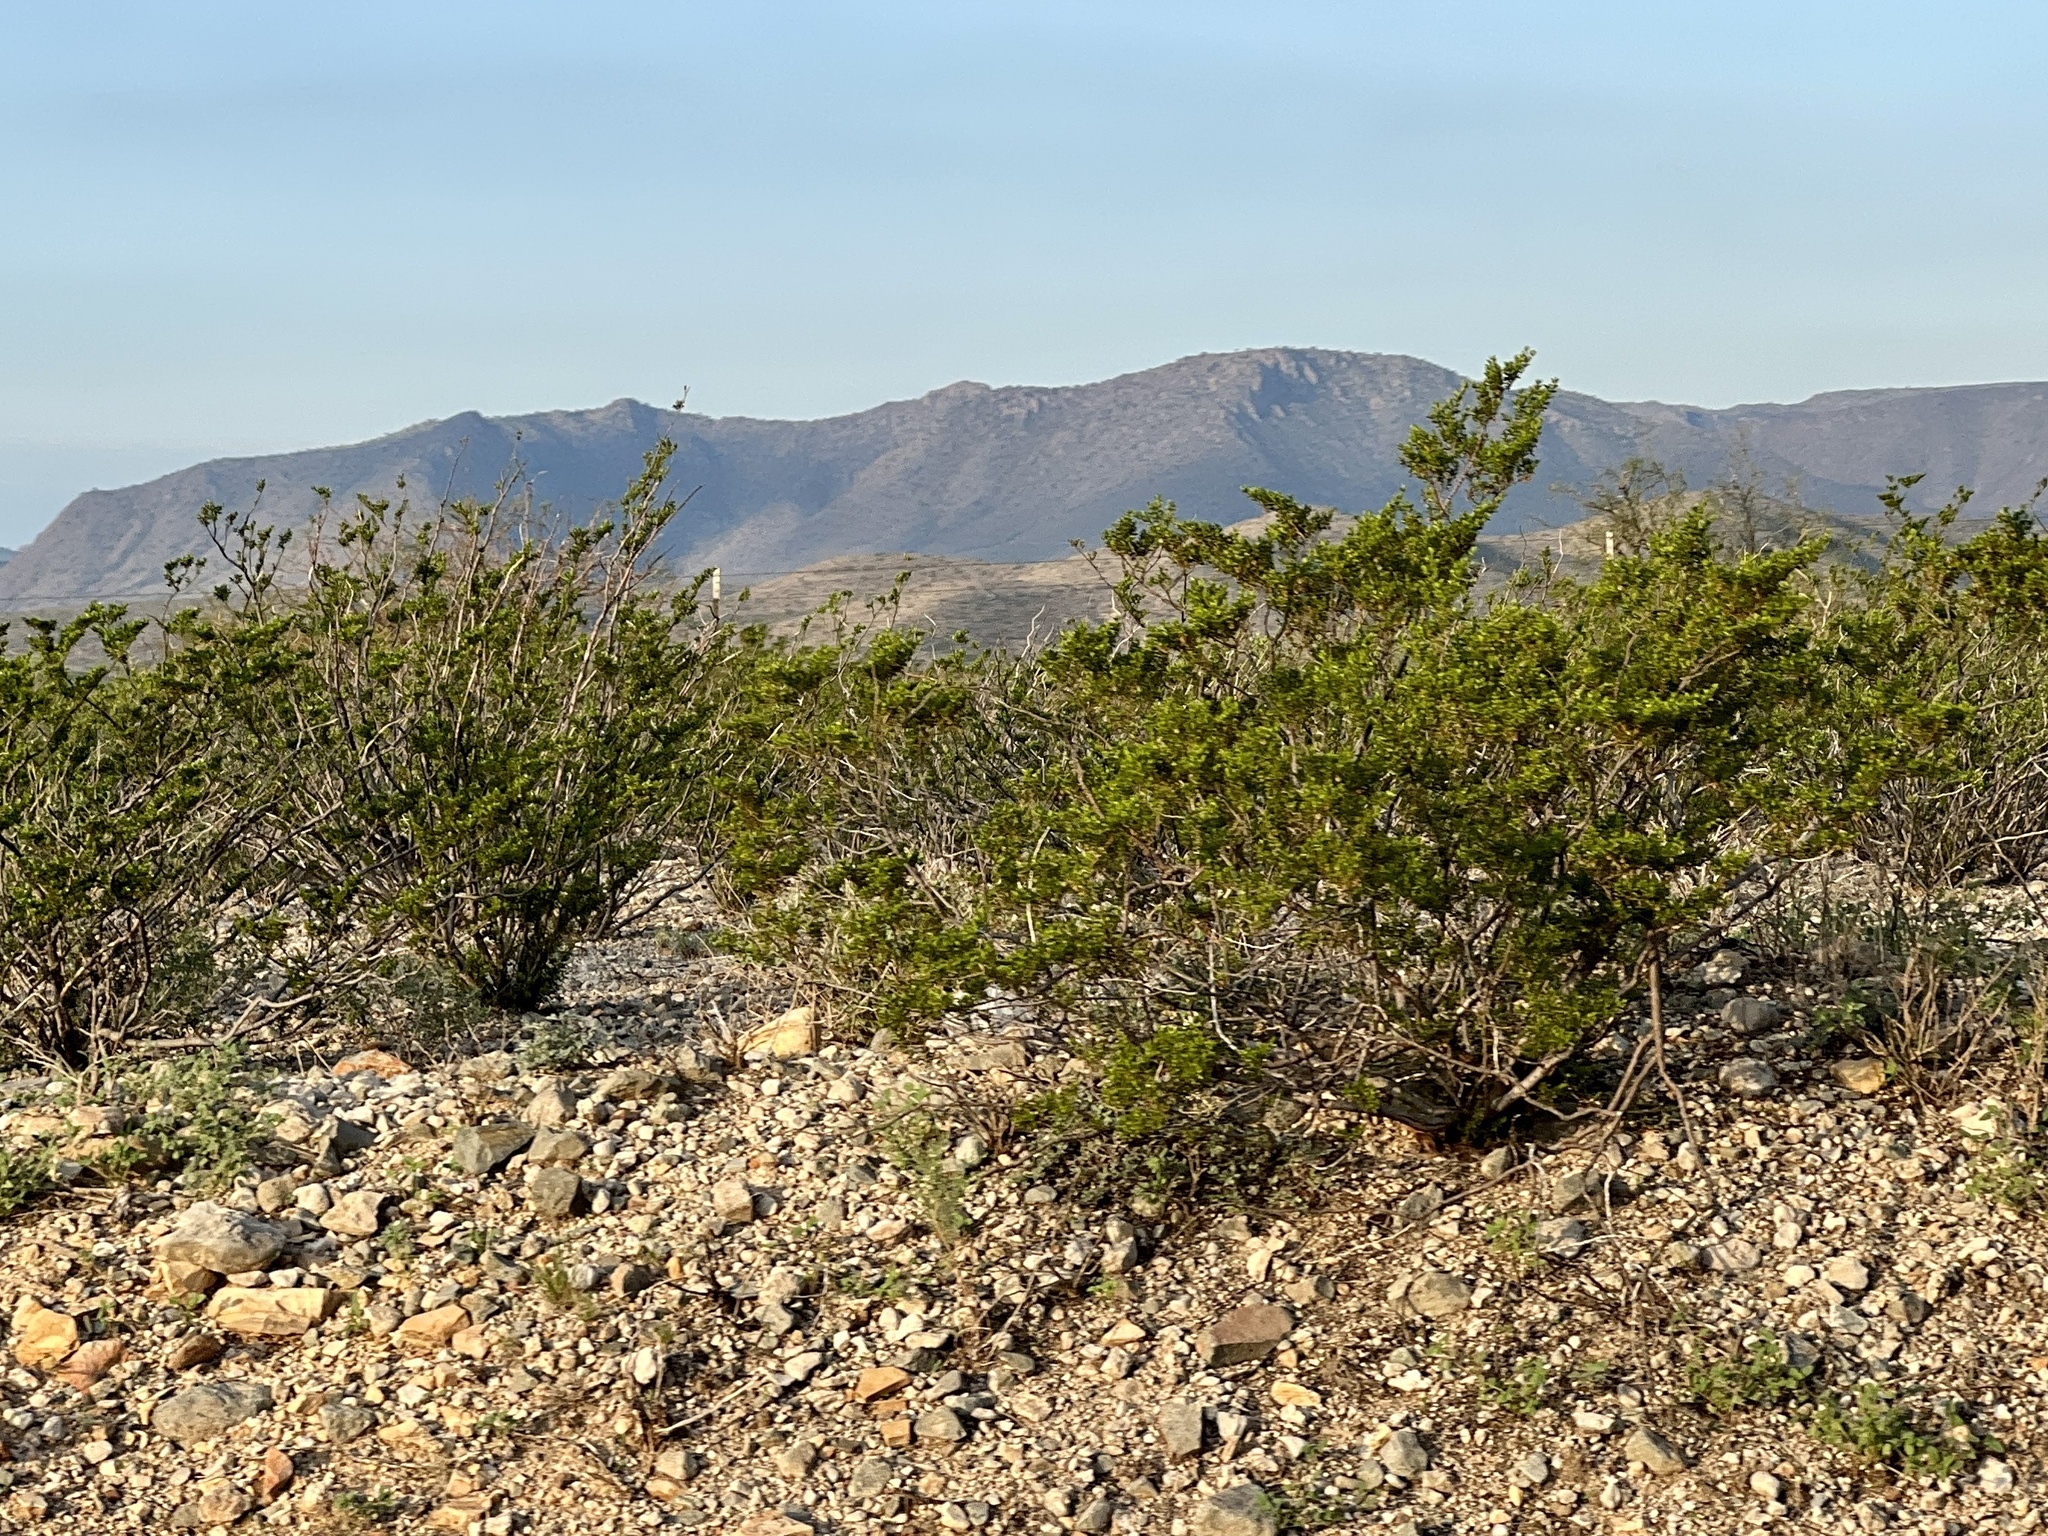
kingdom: Plantae
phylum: Tracheophyta
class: Magnoliopsida
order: Zygophyllales
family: Zygophyllaceae
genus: Larrea
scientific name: Larrea tridentata
